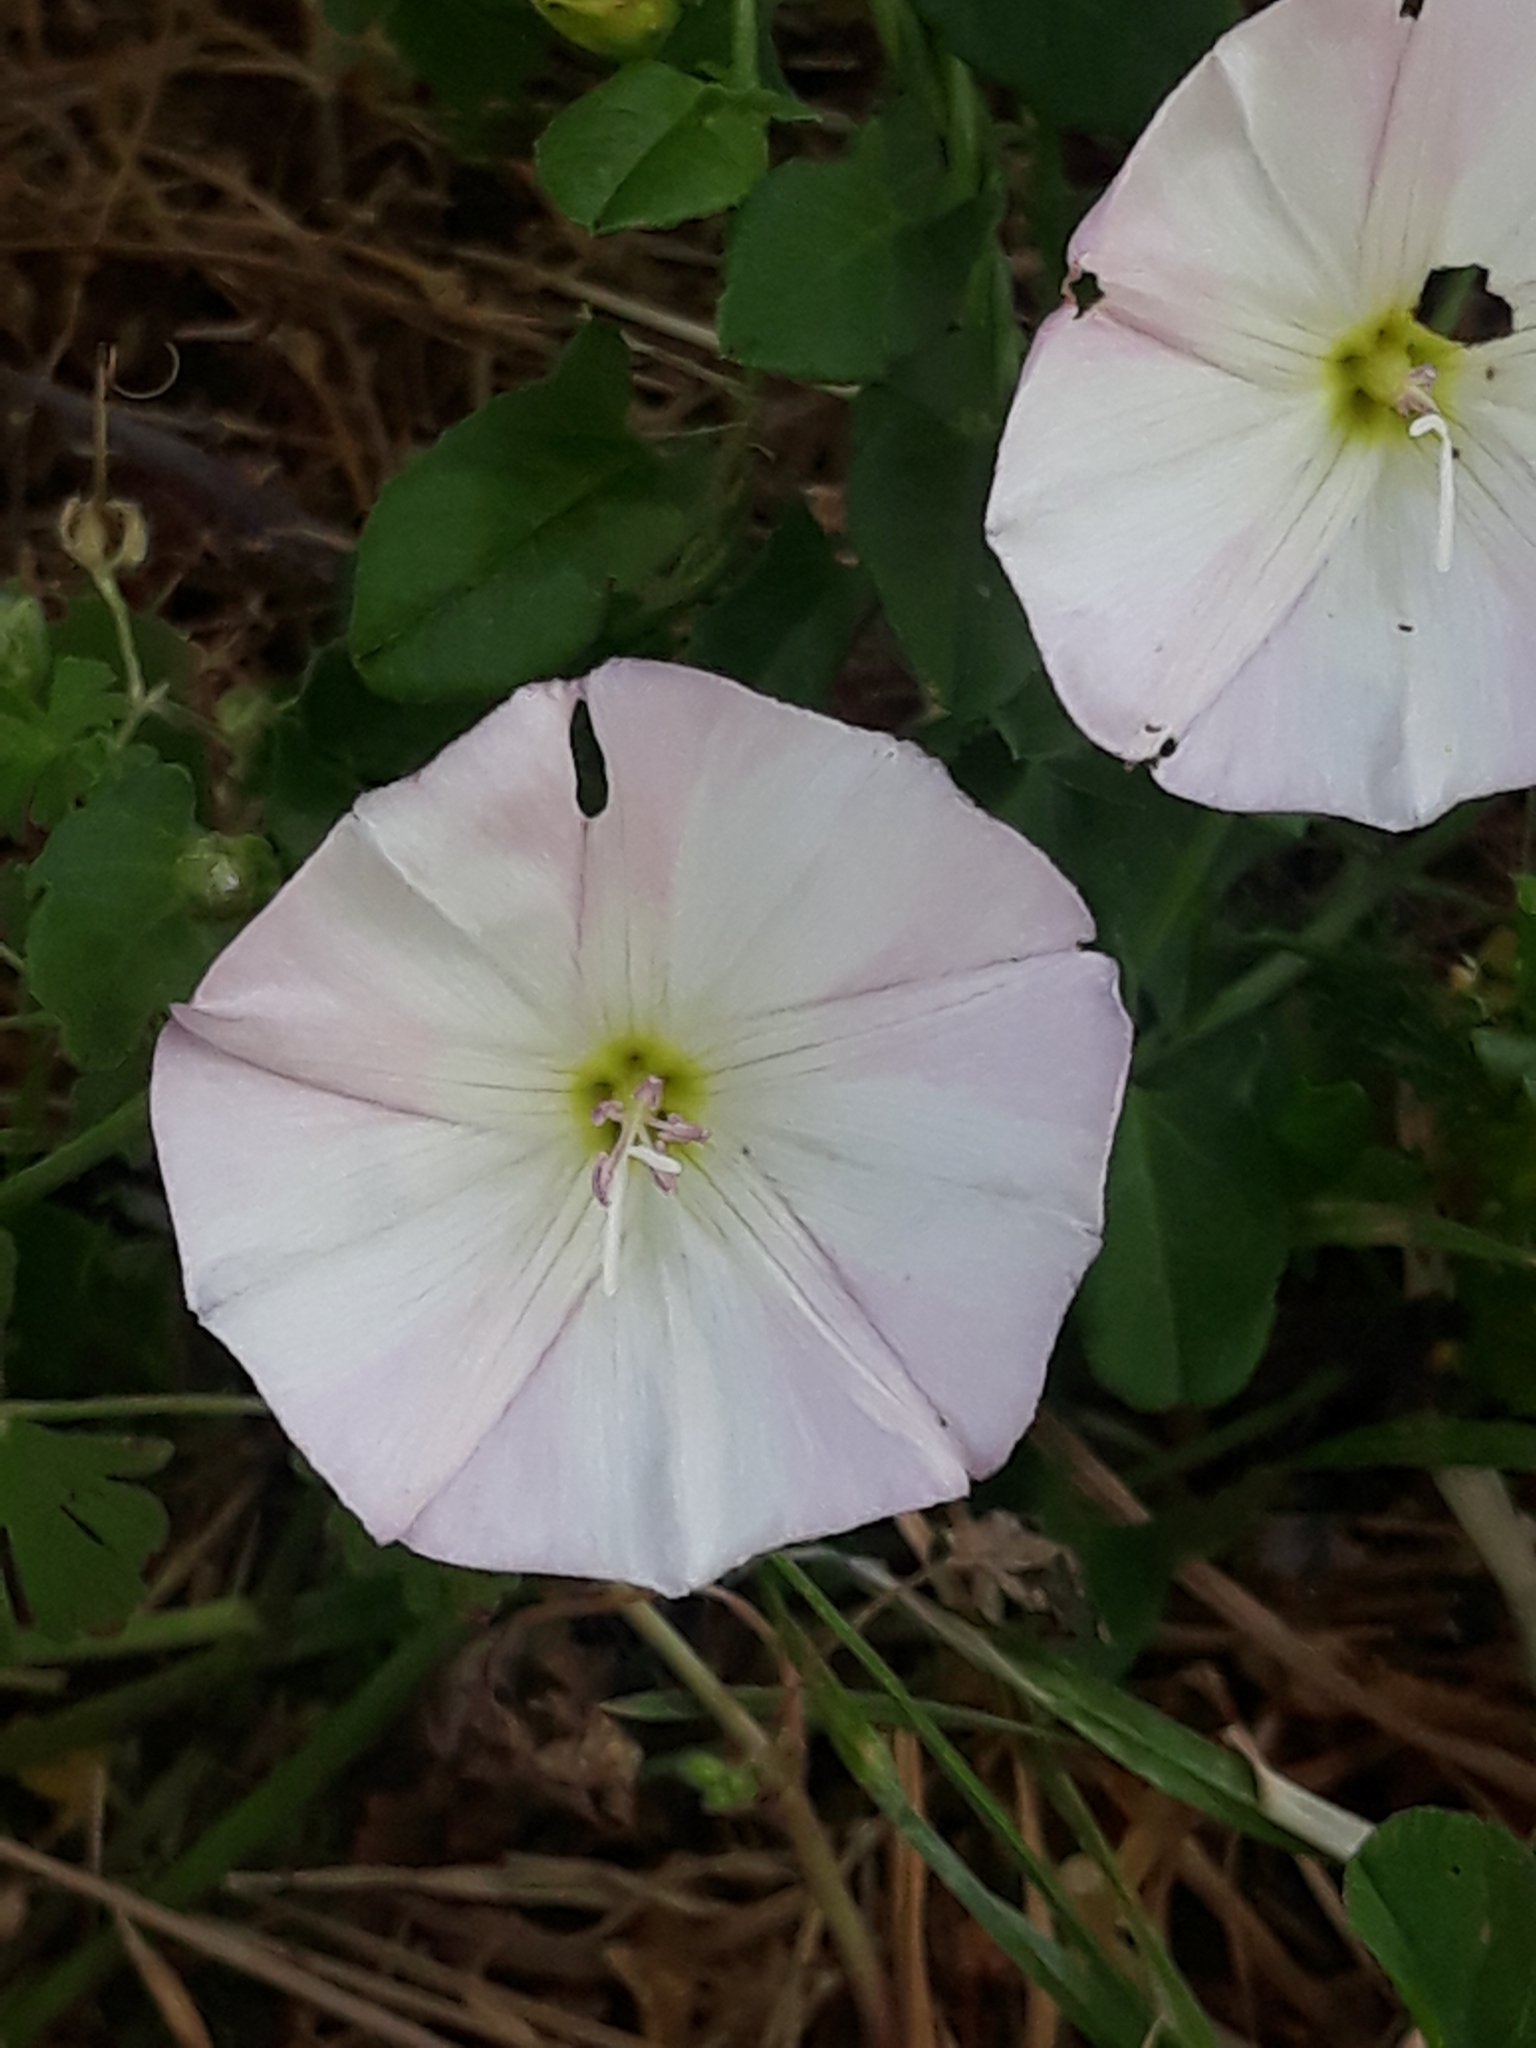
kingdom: Plantae
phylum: Tracheophyta
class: Magnoliopsida
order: Solanales
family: Convolvulaceae
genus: Convolvulus
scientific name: Convolvulus arvensis
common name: Field bindweed
